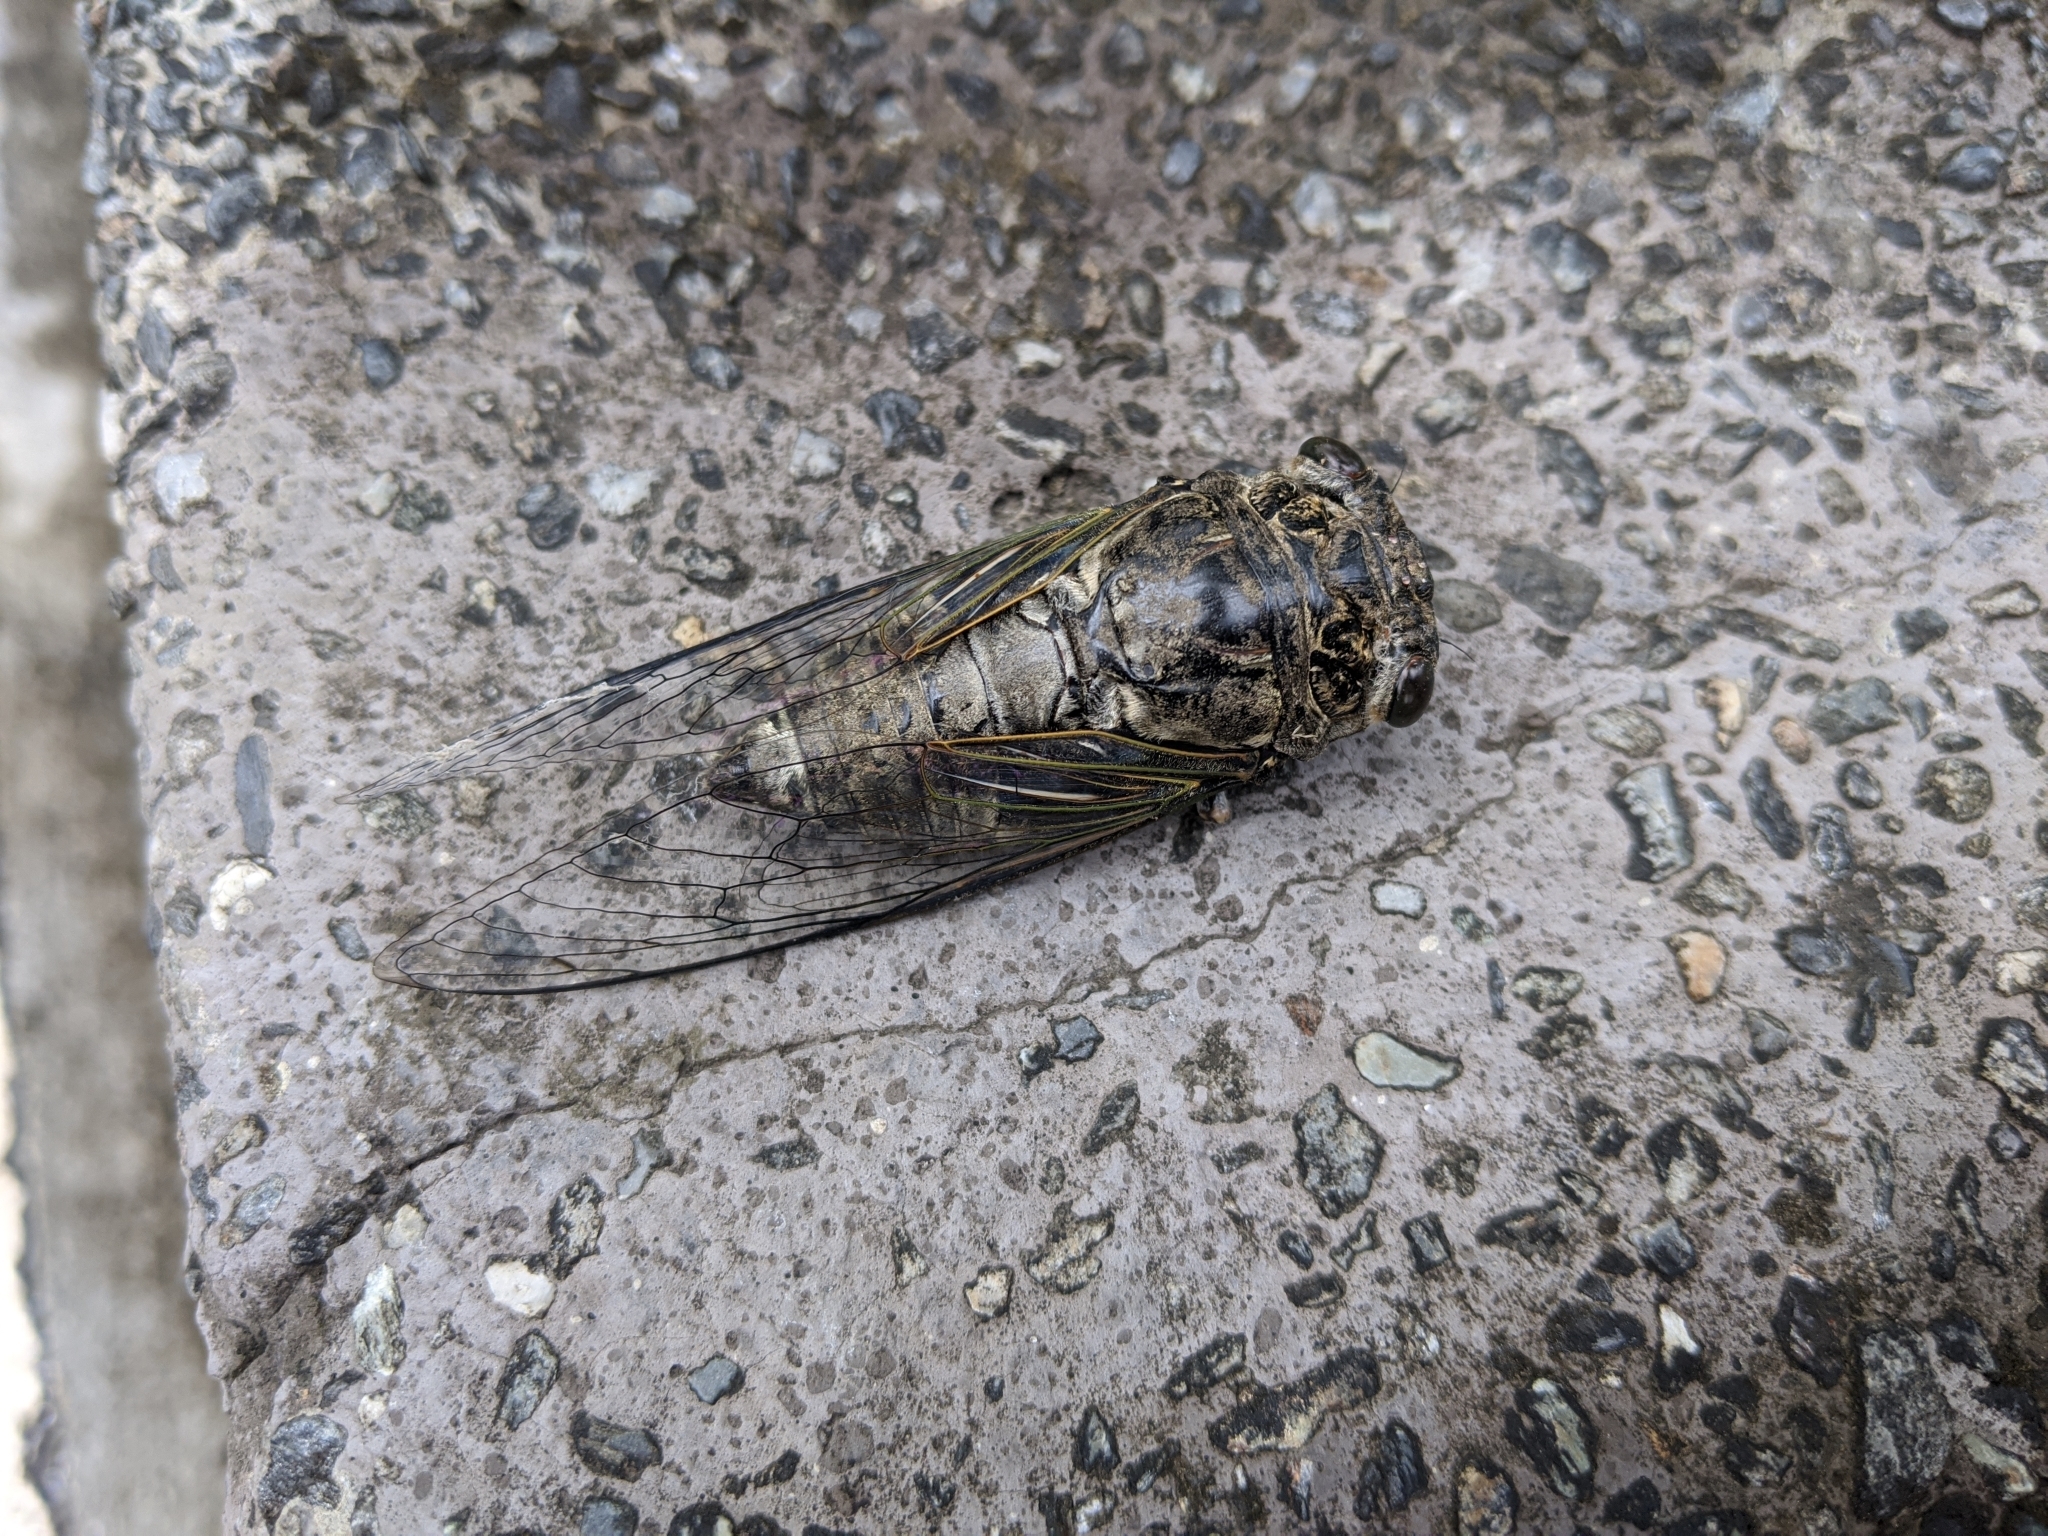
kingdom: Animalia
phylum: Arthropoda
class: Insecta
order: Hemiptera
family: Cicadidae
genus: Cryptotympana
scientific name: Cryptotympana takasagona
